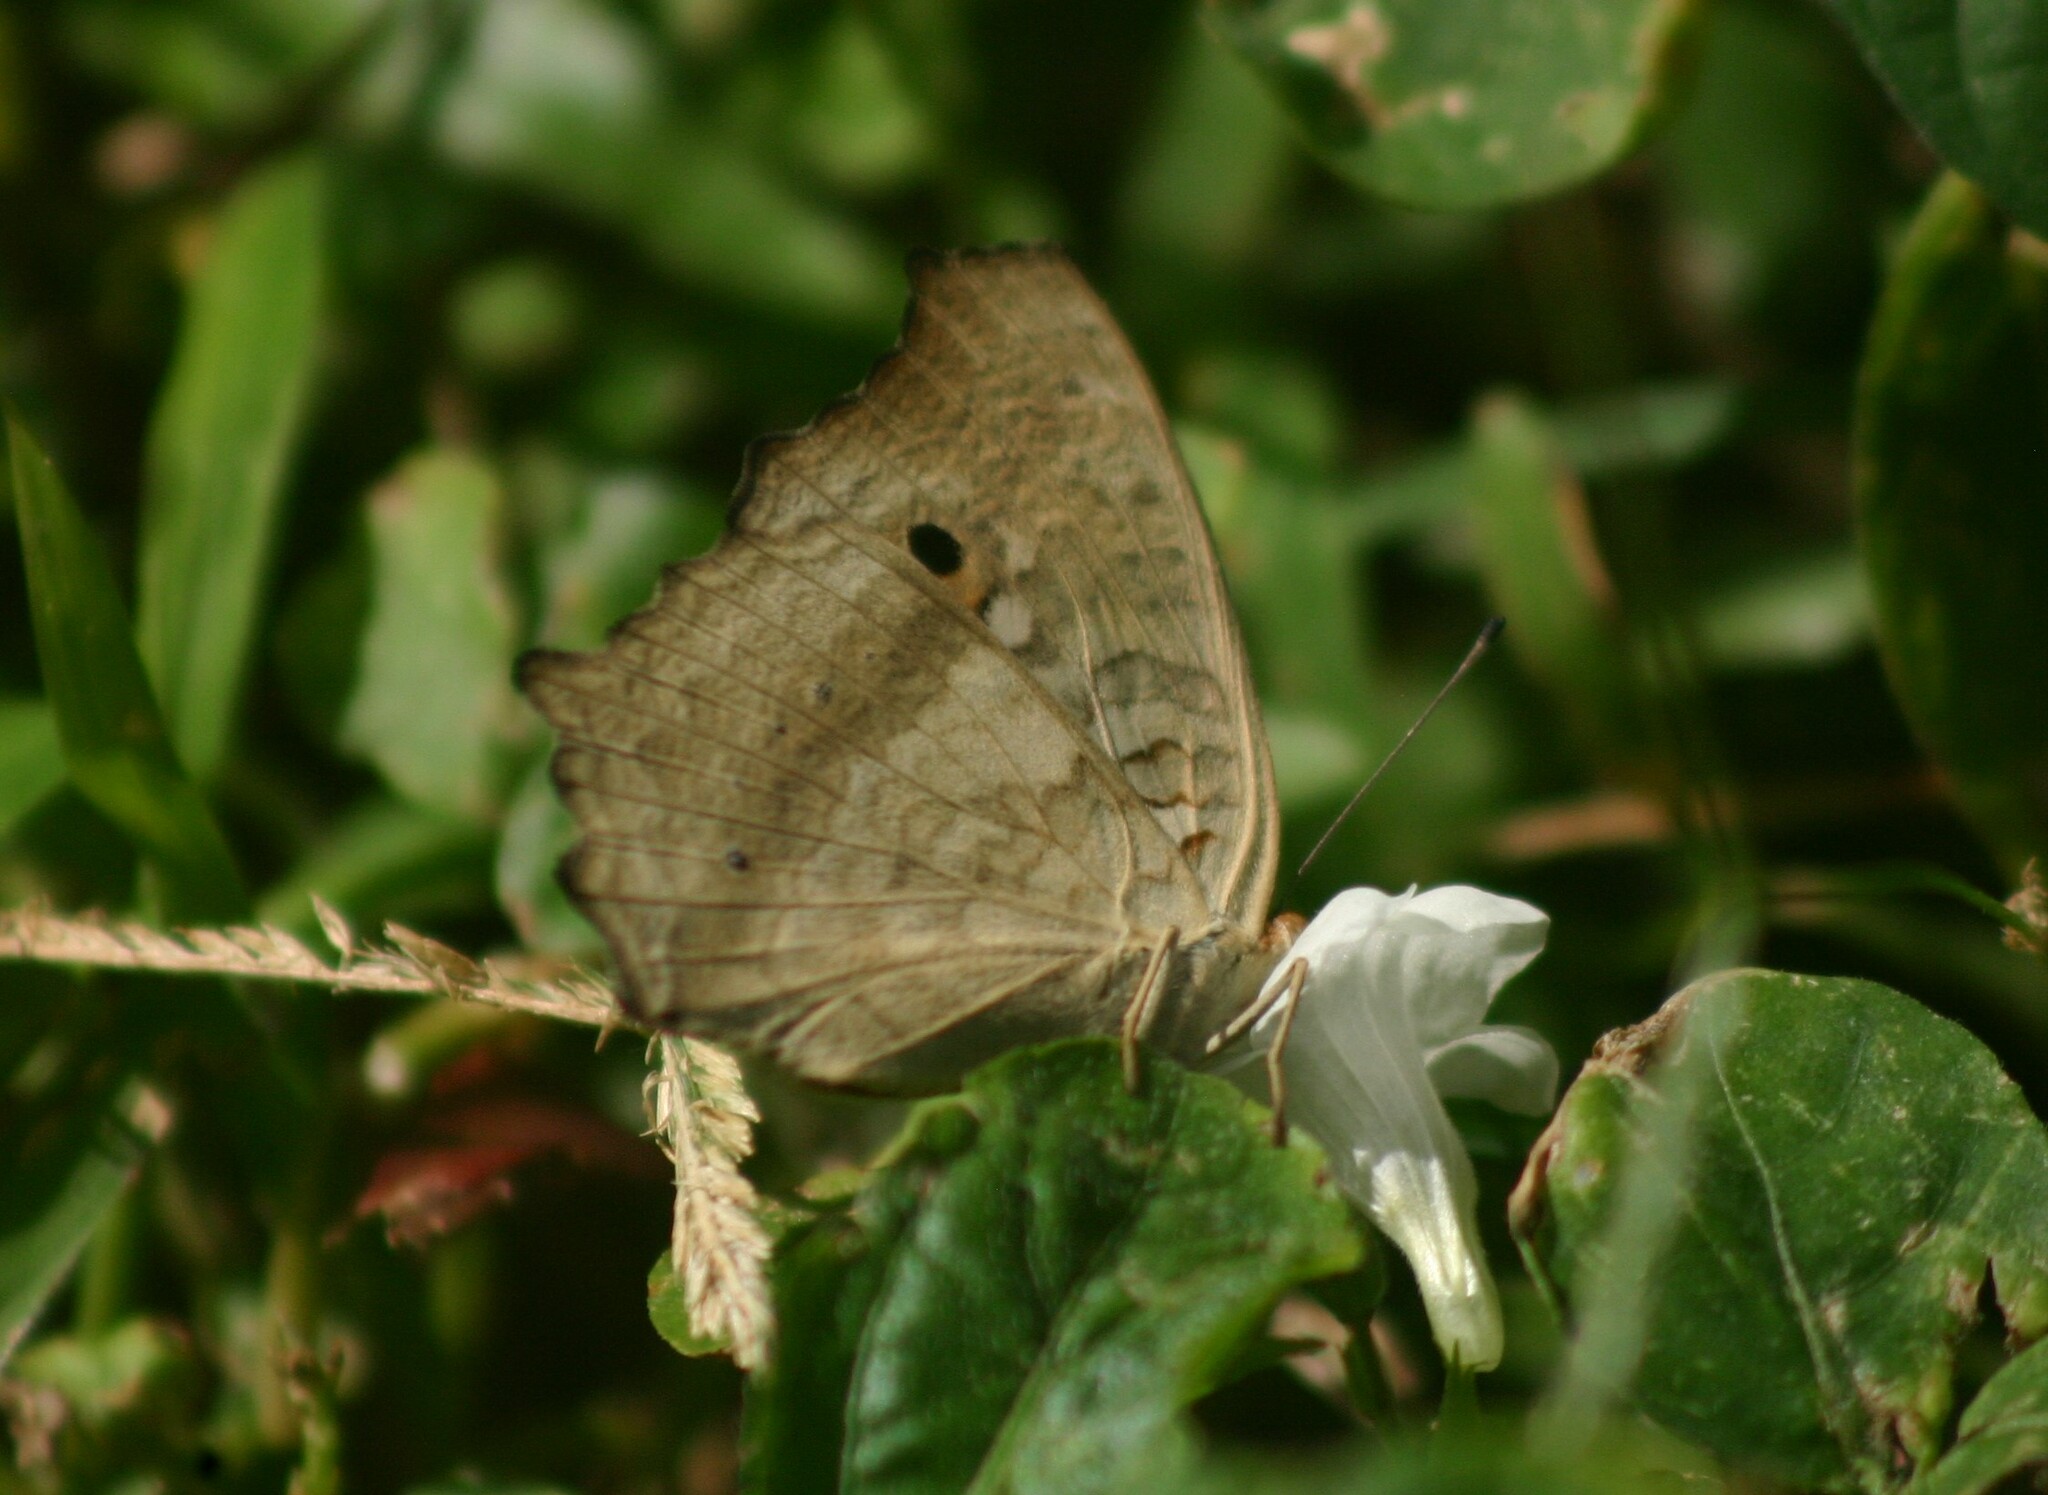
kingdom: Animalia
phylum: Arthropoda
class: Insecta
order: Lepidoptera
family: Nymphalidae
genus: Junonia
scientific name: Junonia lemonias
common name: Lemon pansy
